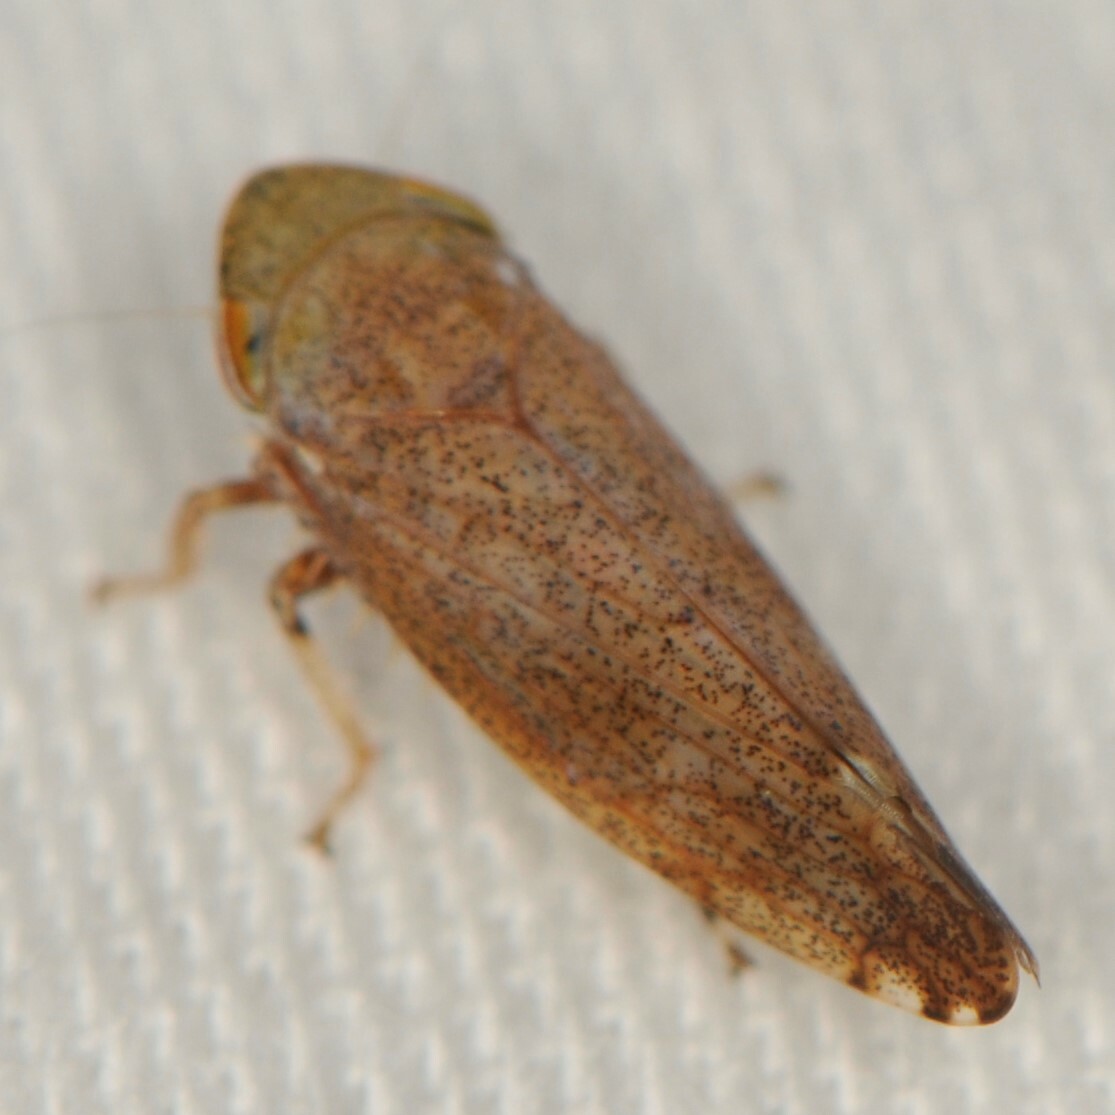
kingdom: Animalia
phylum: Arthropoda
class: Insecta
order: Hemiptera
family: Cicadellidae
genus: Fieberiella
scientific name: Fieberiella florii
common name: Flor’s leafhopper
